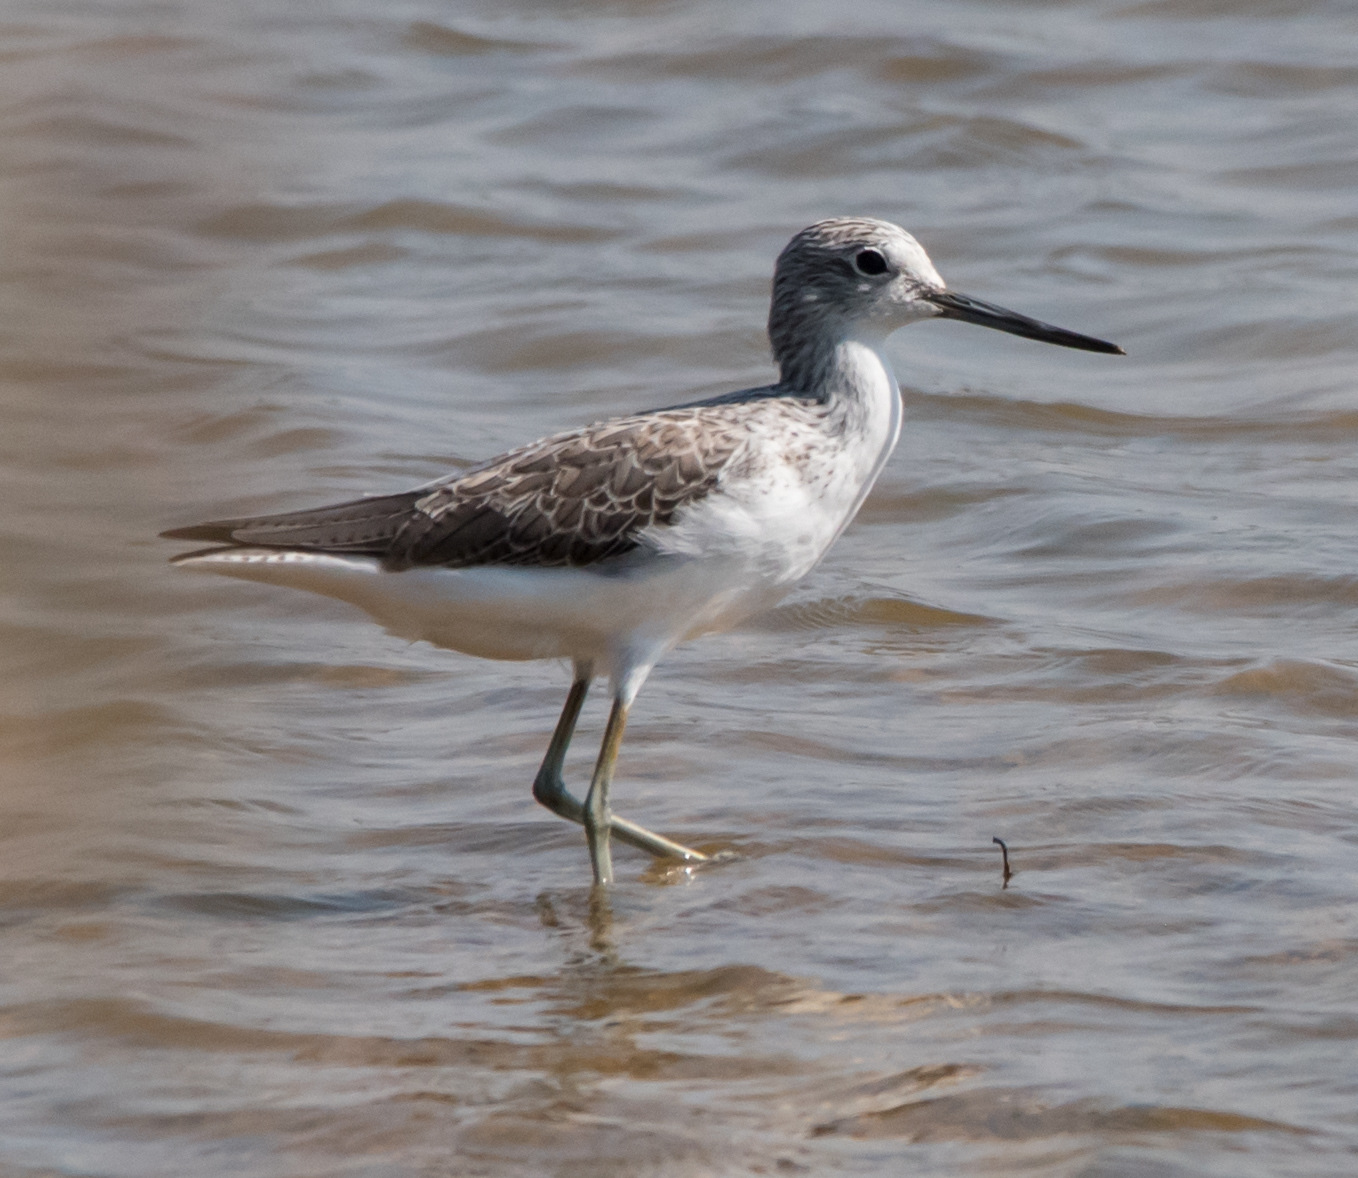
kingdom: Animalia
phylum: Chordata
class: Aves
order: Charadriiformes
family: Scolopacidae
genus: Tringa
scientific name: Tringa nebularia
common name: Common greenshank
